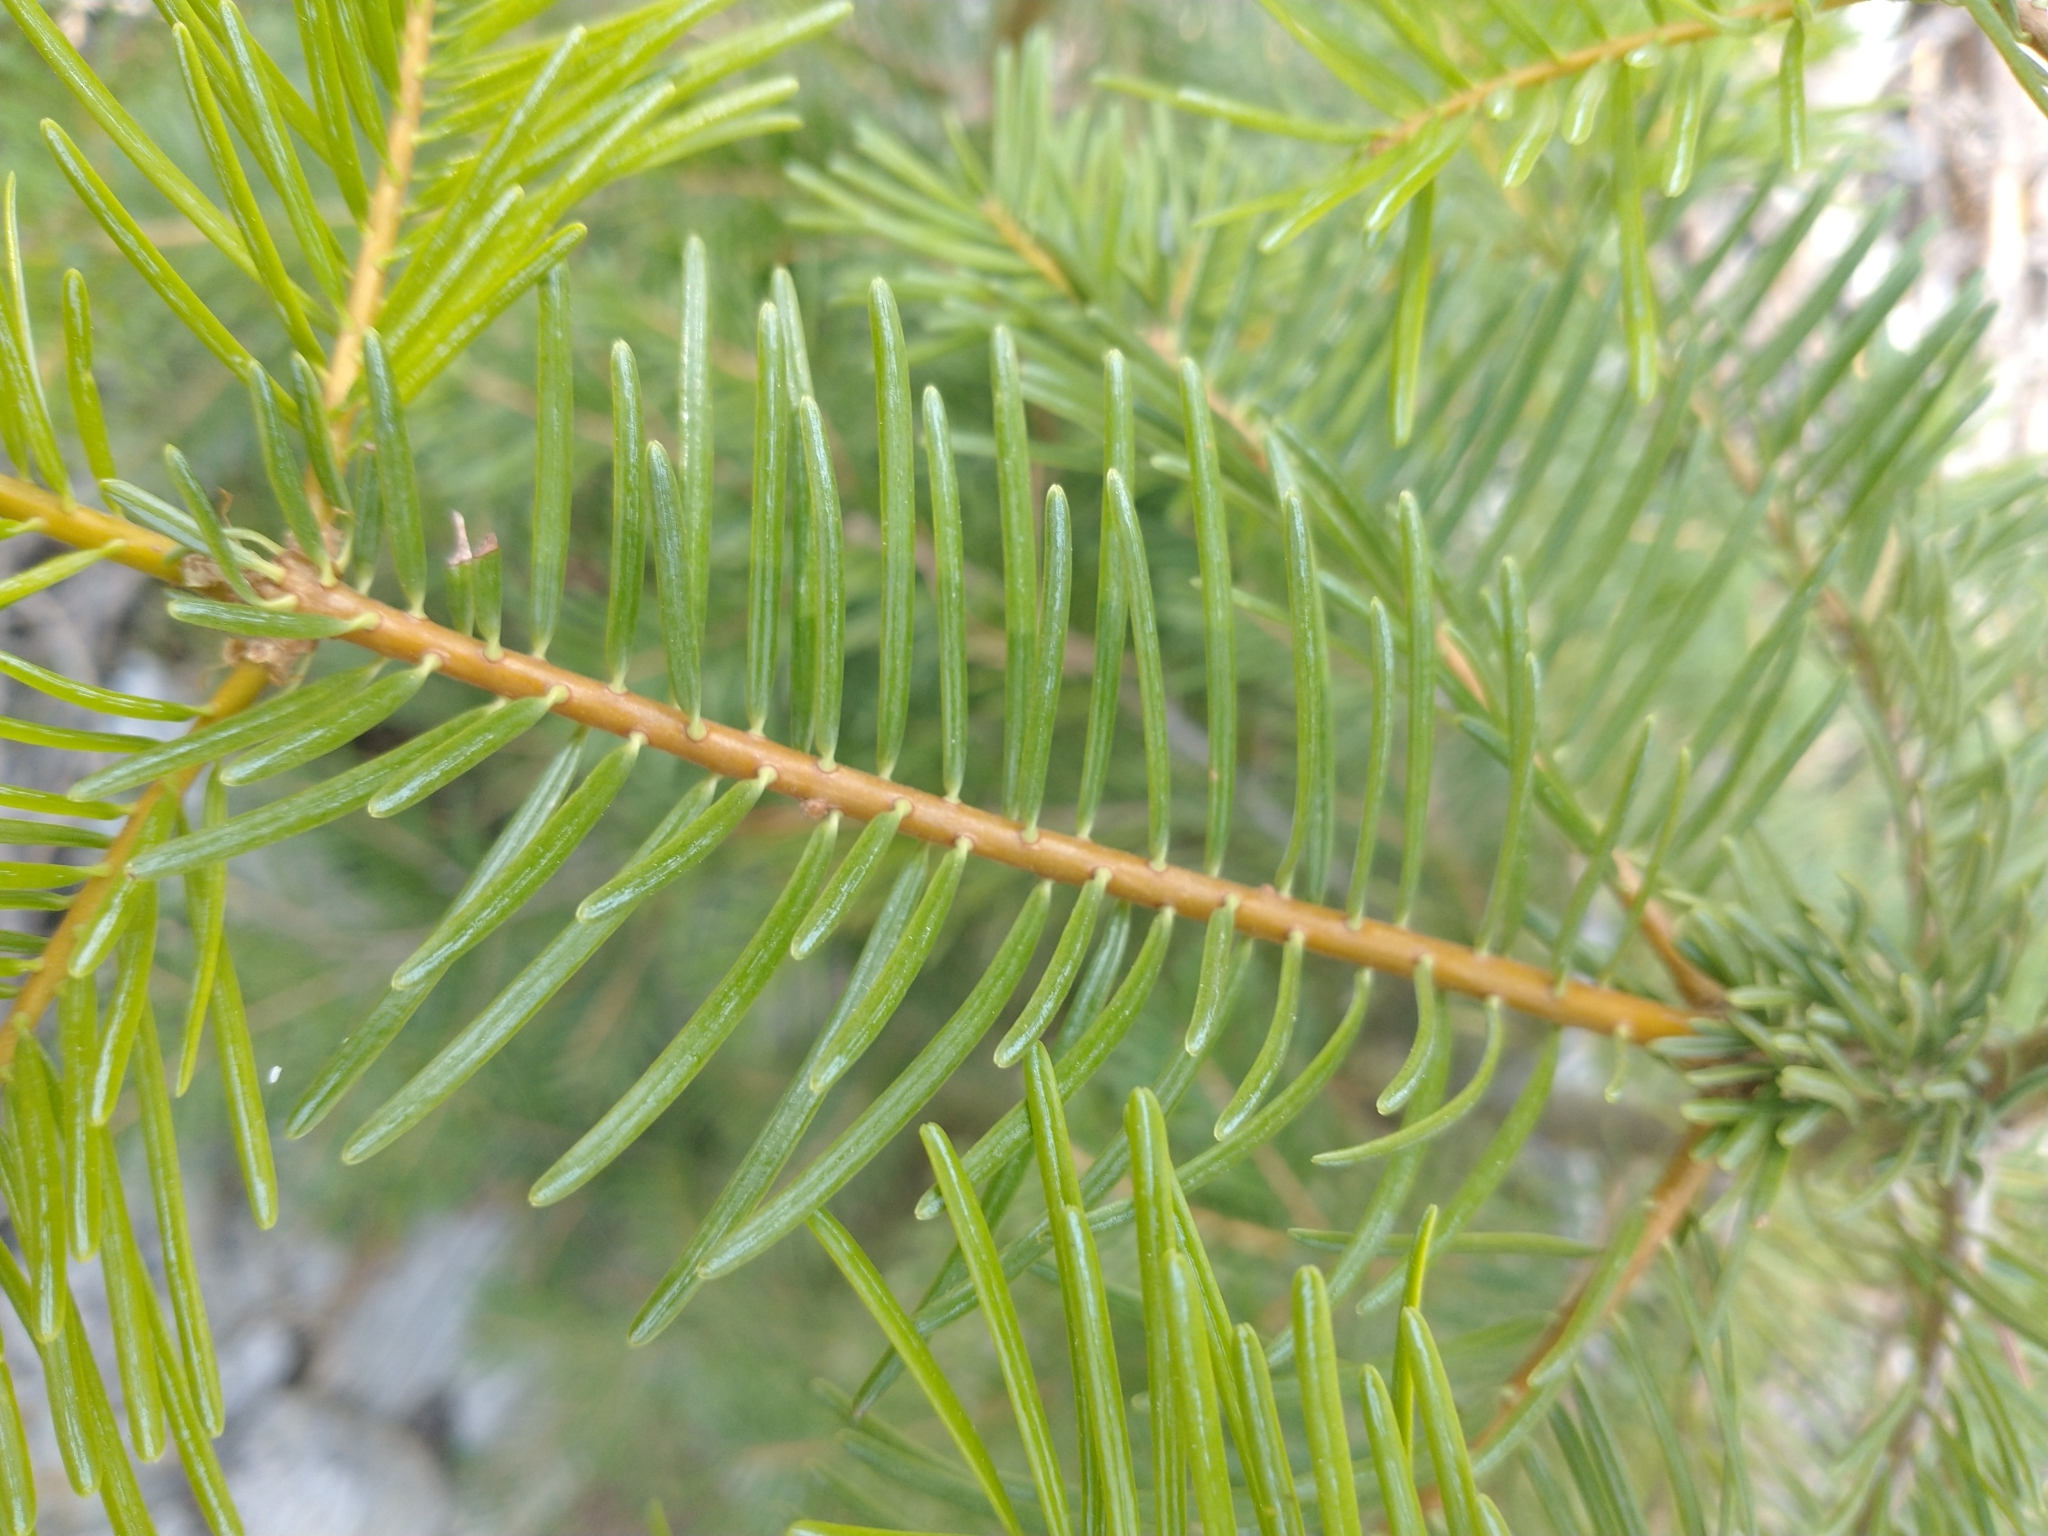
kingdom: Plantae
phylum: Tracheophyta
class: Pinopsida
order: Pinales
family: Pinaceae
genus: Abies
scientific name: Abies concolor
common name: Colorado fir
